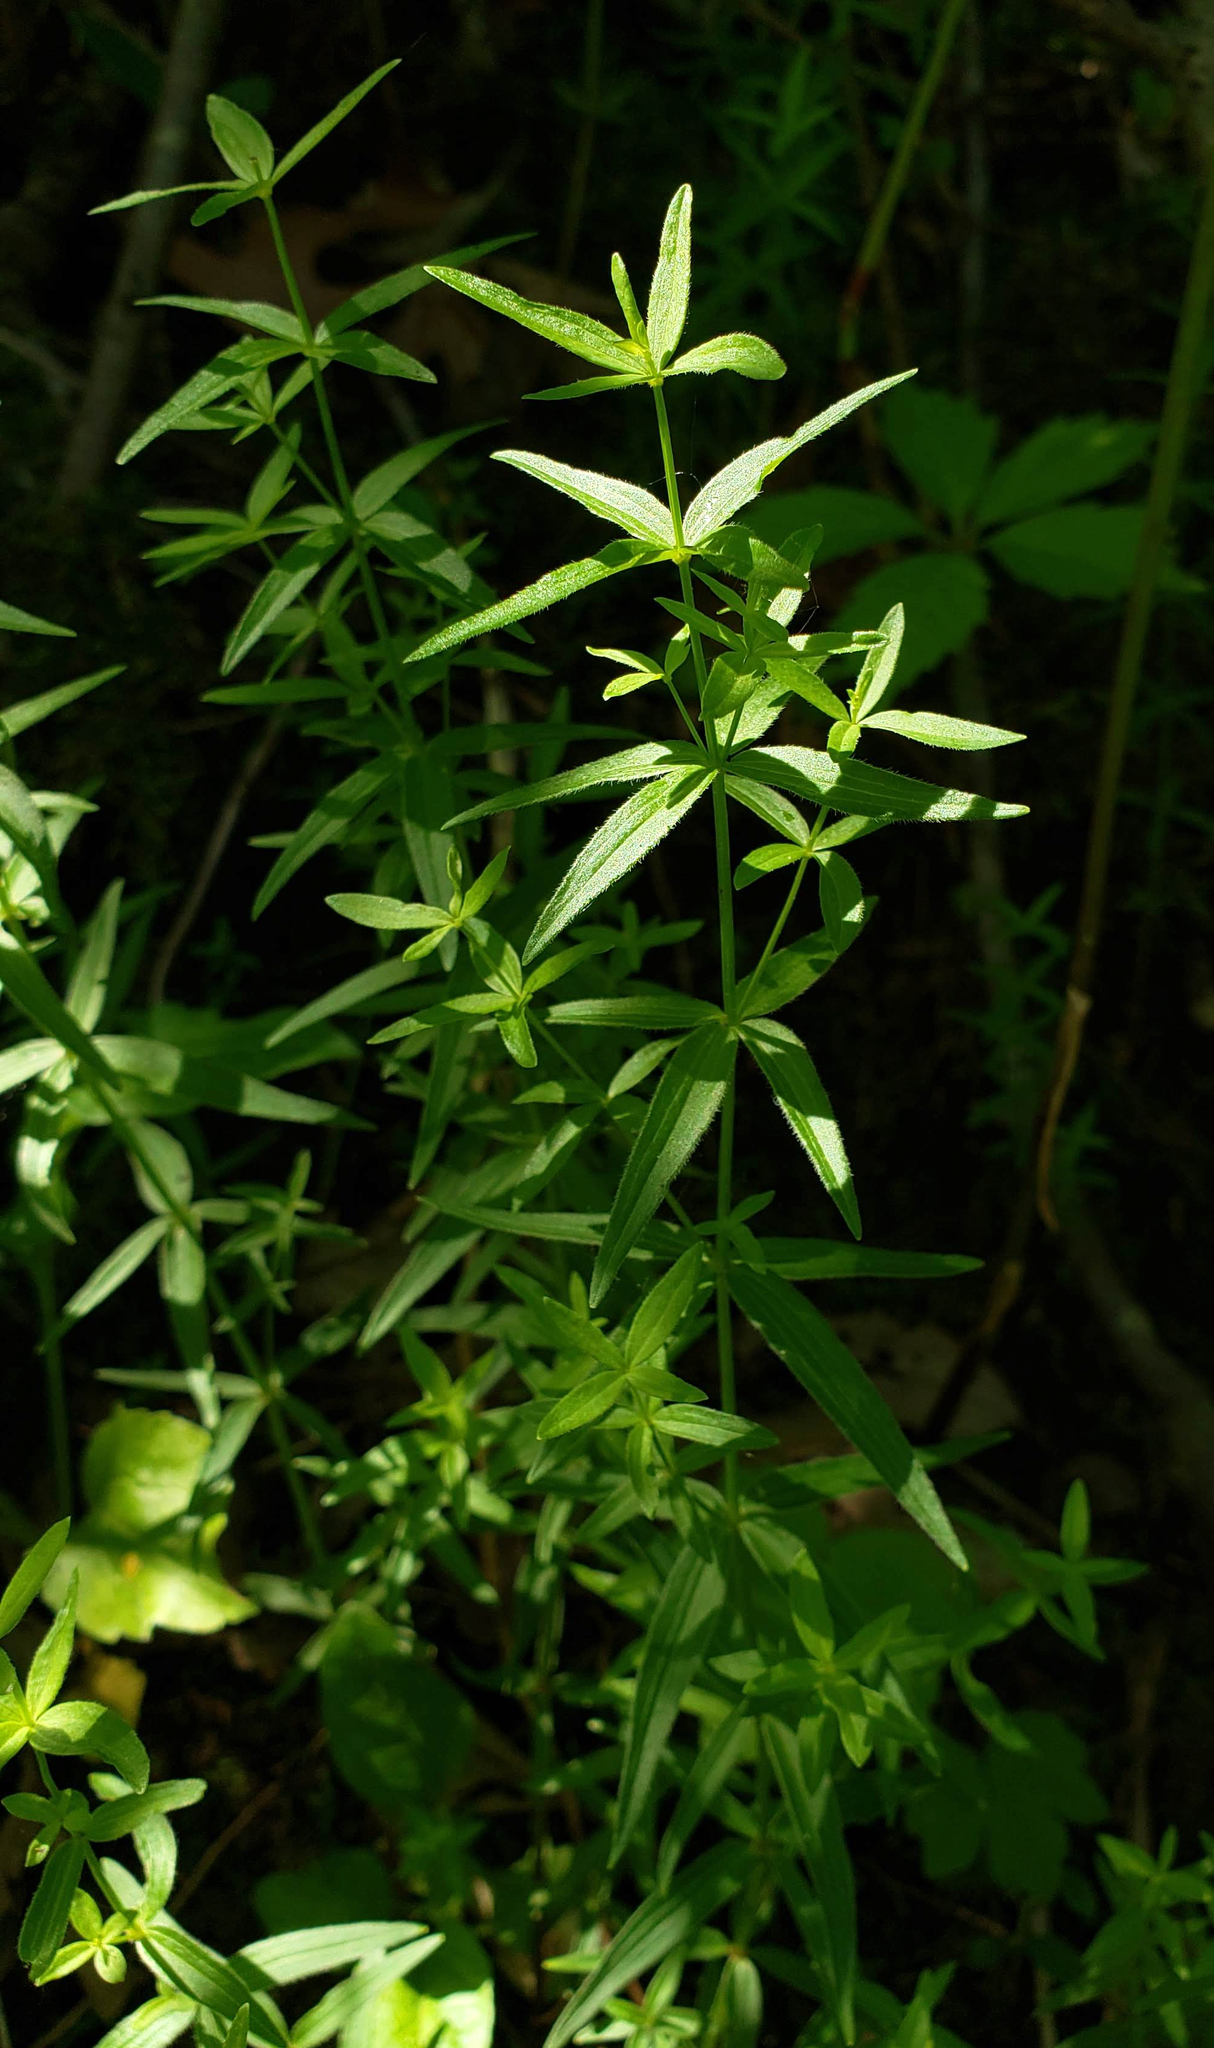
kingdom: Plantae
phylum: Tracheophyta
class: Magnoliopsida
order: Gentianales
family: Rubiaceae
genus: Galium
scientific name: Galium boreale
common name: Northern bedstraw
